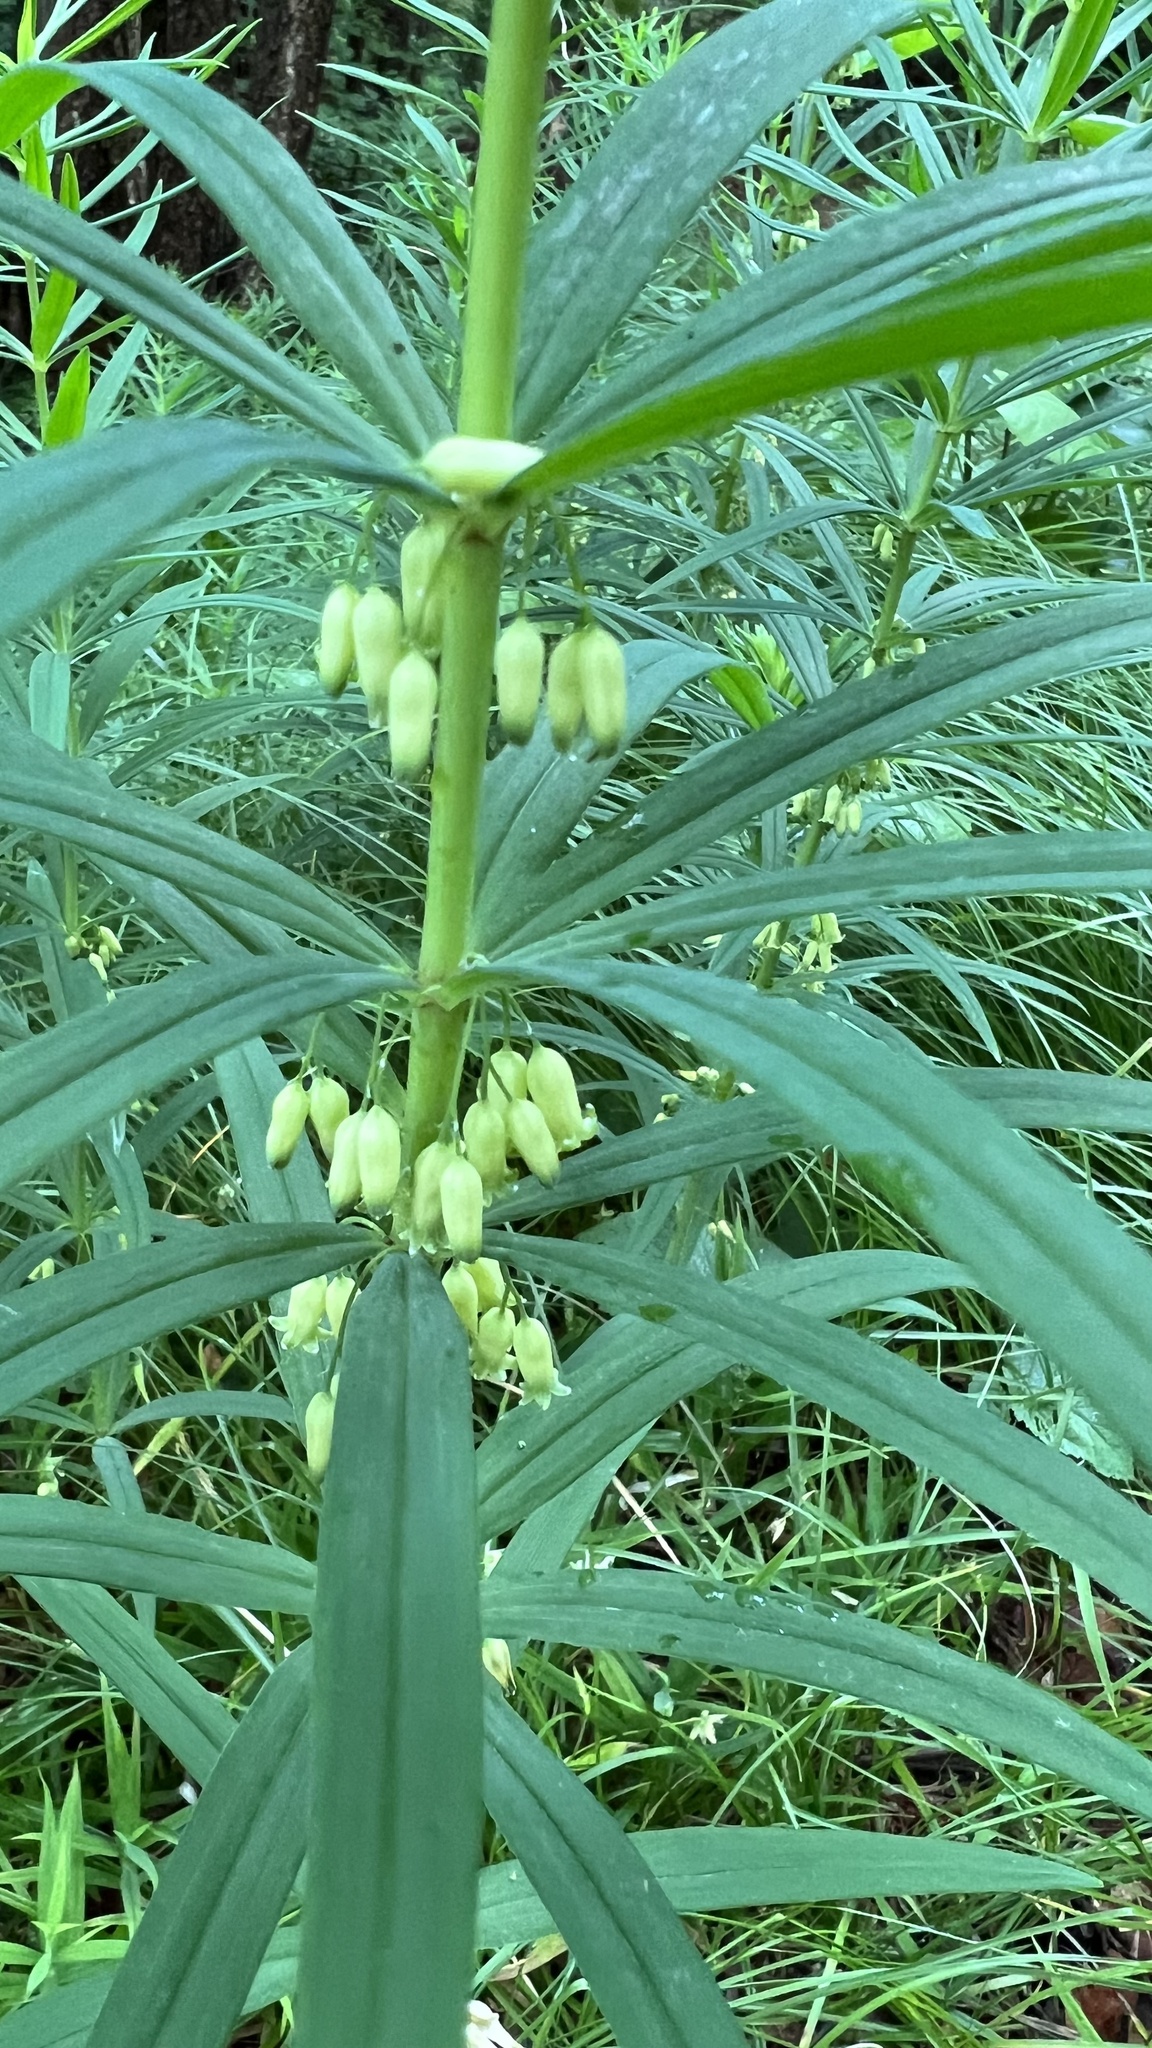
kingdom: Plantae
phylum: Tracheophyta
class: Liliopsida
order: Asparagales
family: Asparagaceae
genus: Polygonatum
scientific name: Polygonatum verticillatum
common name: Whorled solomon's-seal
